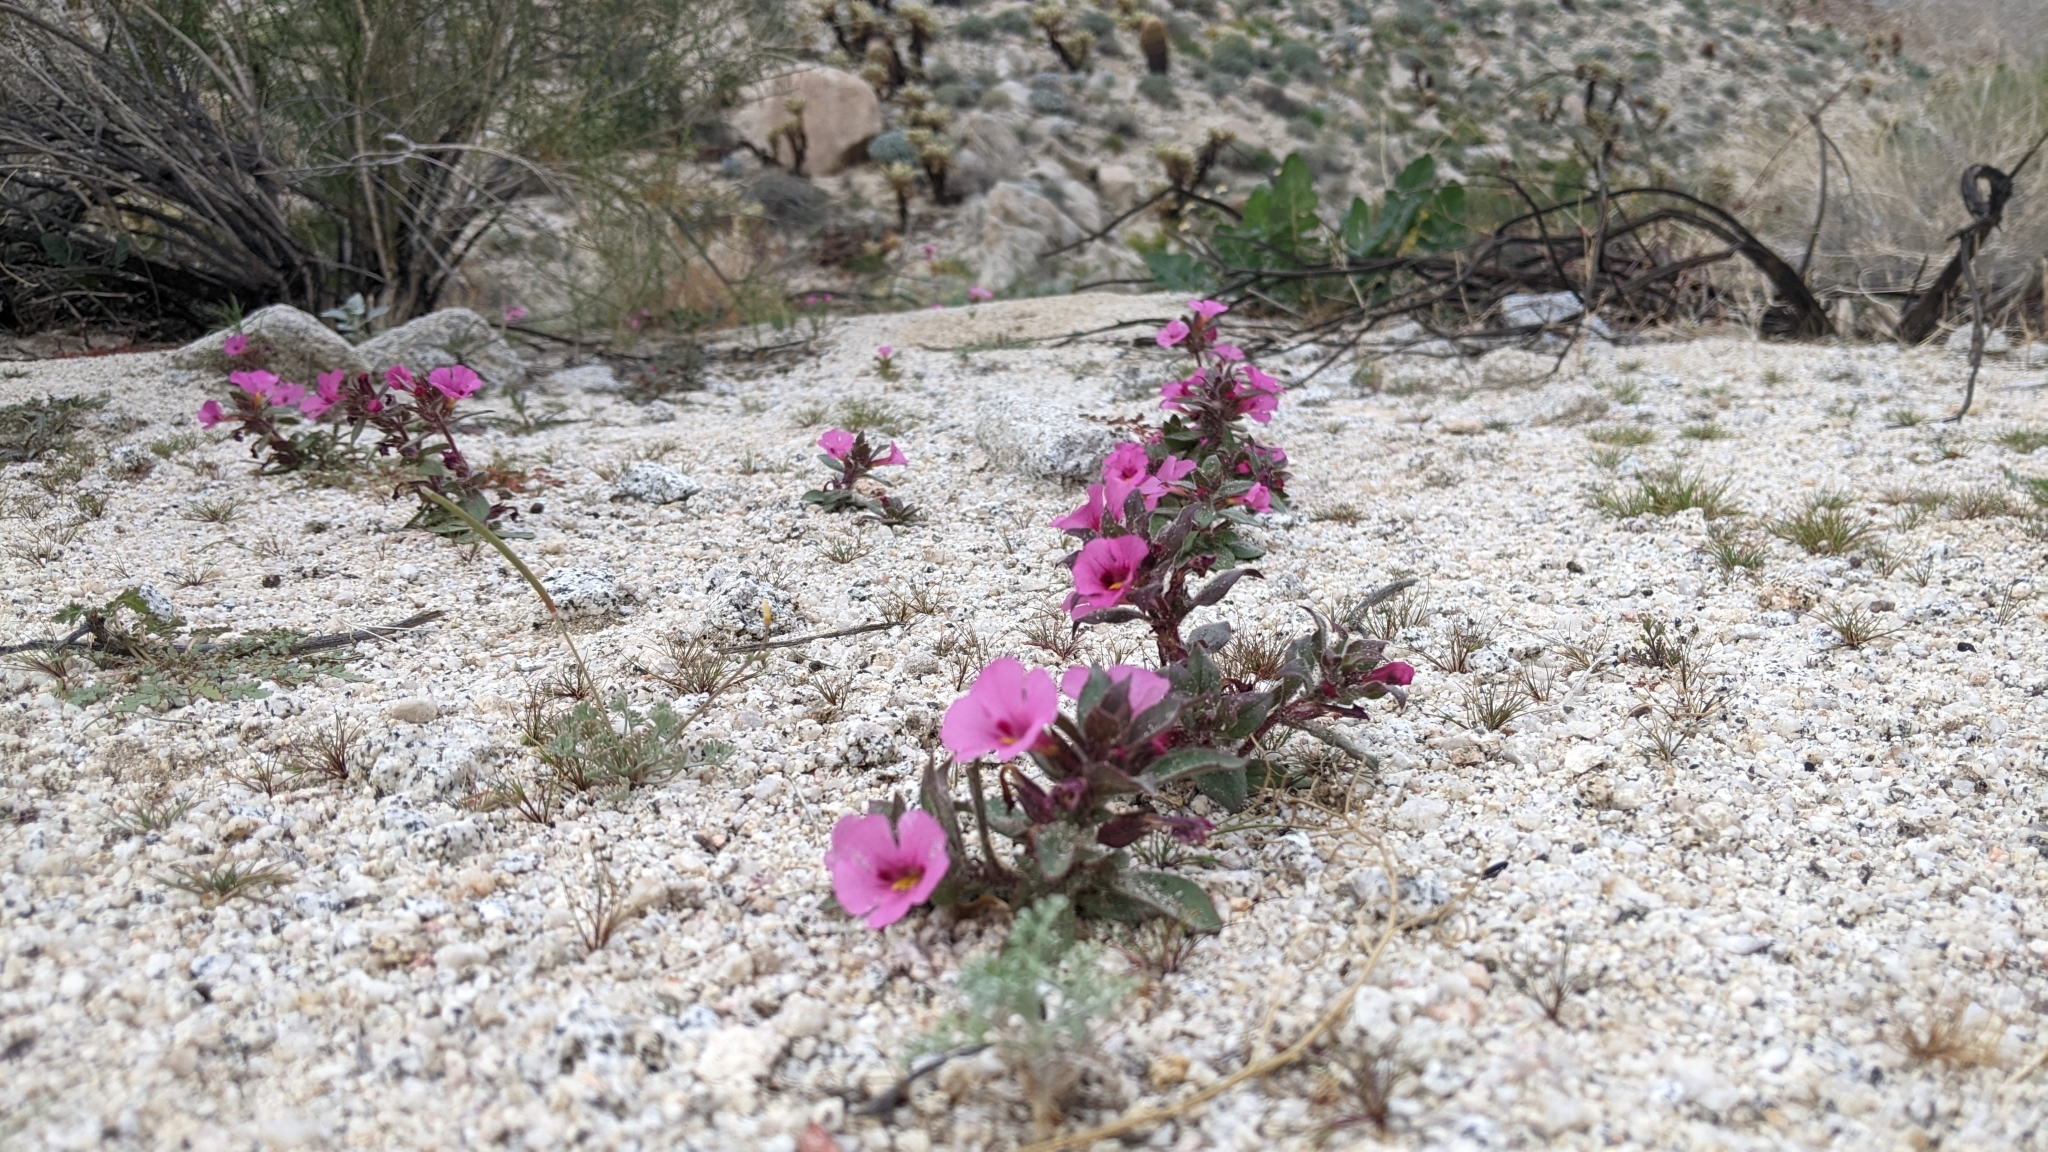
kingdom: Plantae
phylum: Tracheophyta
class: Magnoliopsida
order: Lamiales
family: Phrymaceae
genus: Diplacus
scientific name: Diplacus bigelovii
